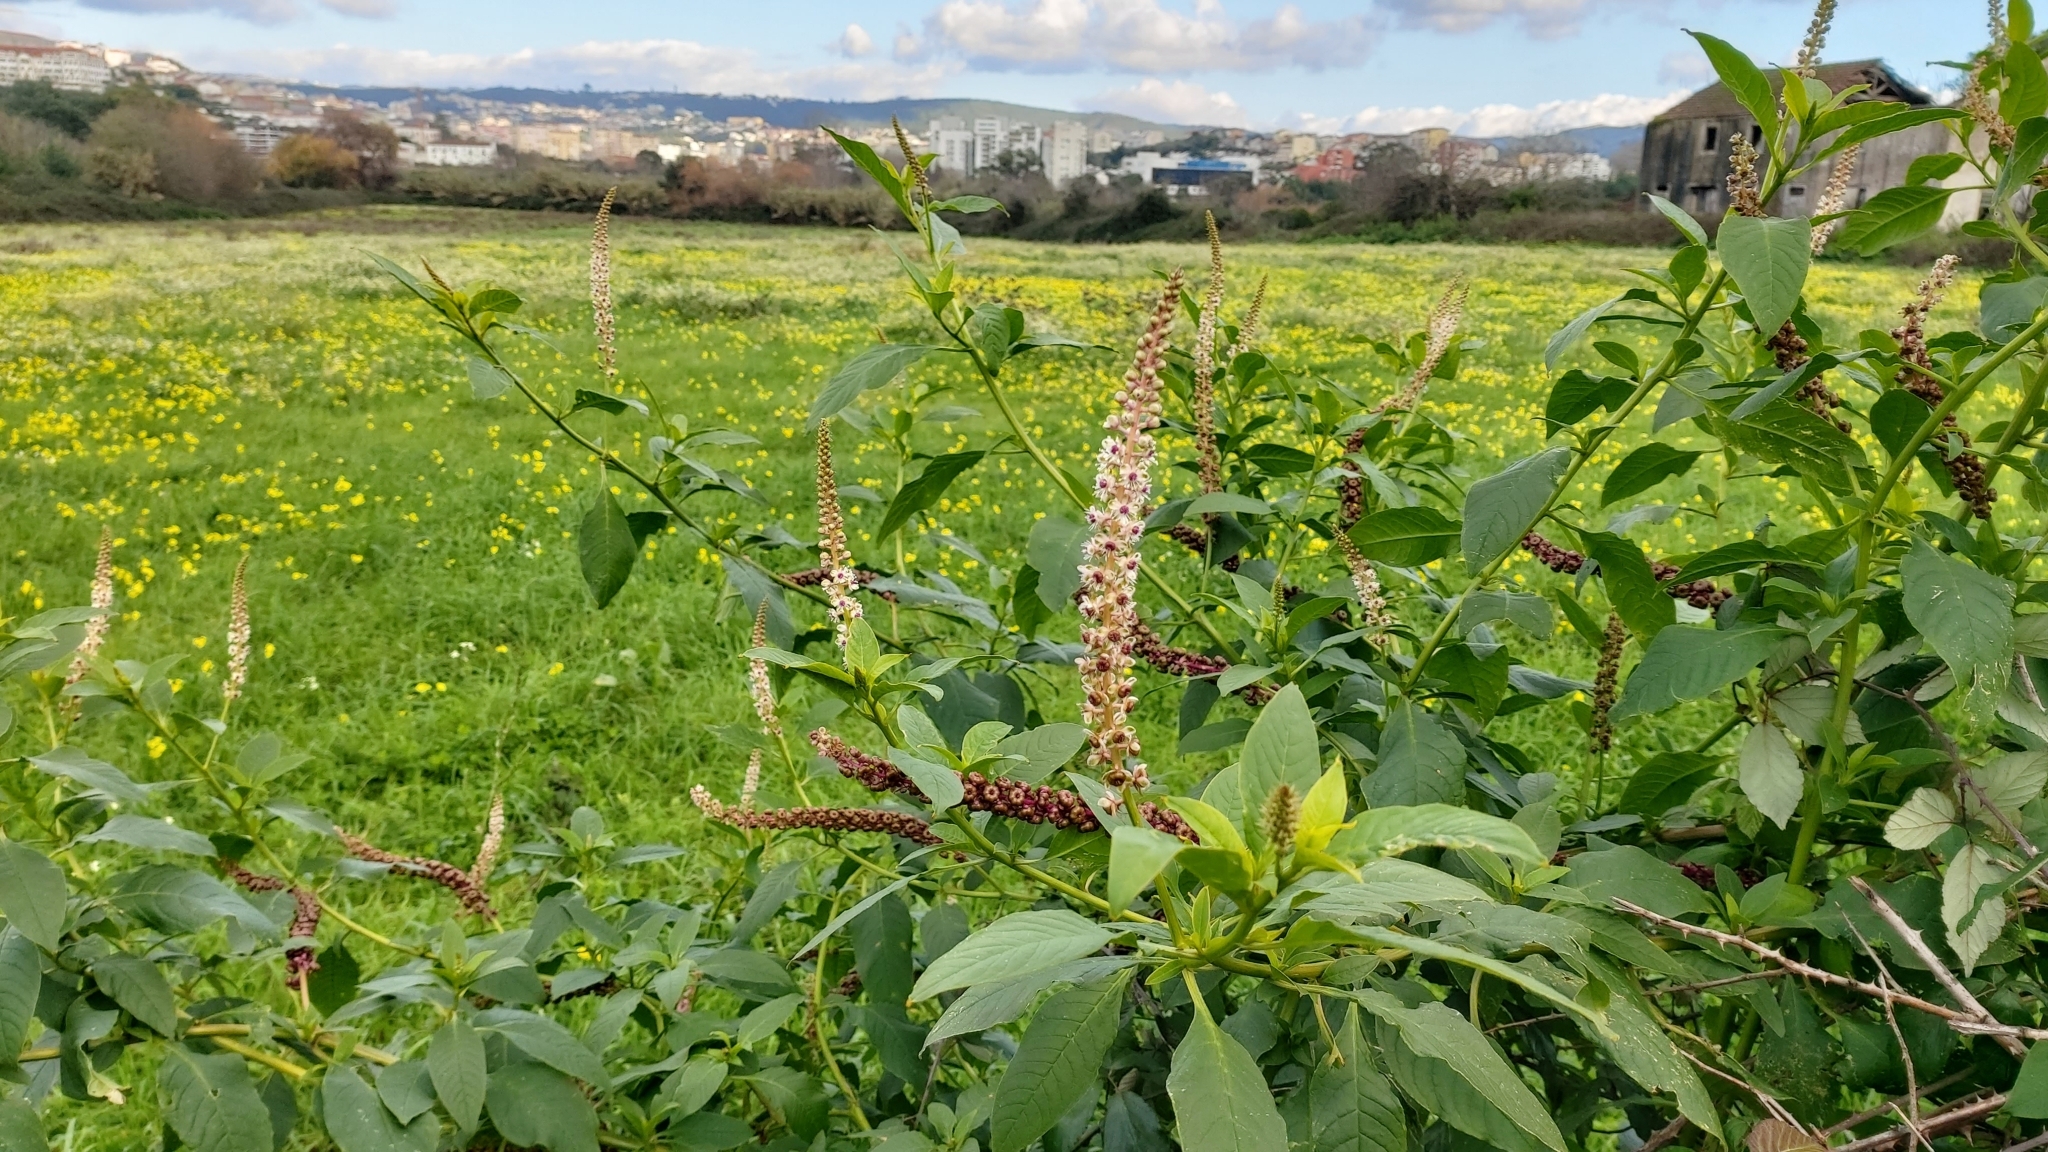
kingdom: Plantae
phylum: Tracheophyta
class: Magnoliopsida
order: Caryophyllales
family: Phytolaccaceae
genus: Phytolacca
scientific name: Phytolacca heterotepala
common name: Mexican pokeweed
